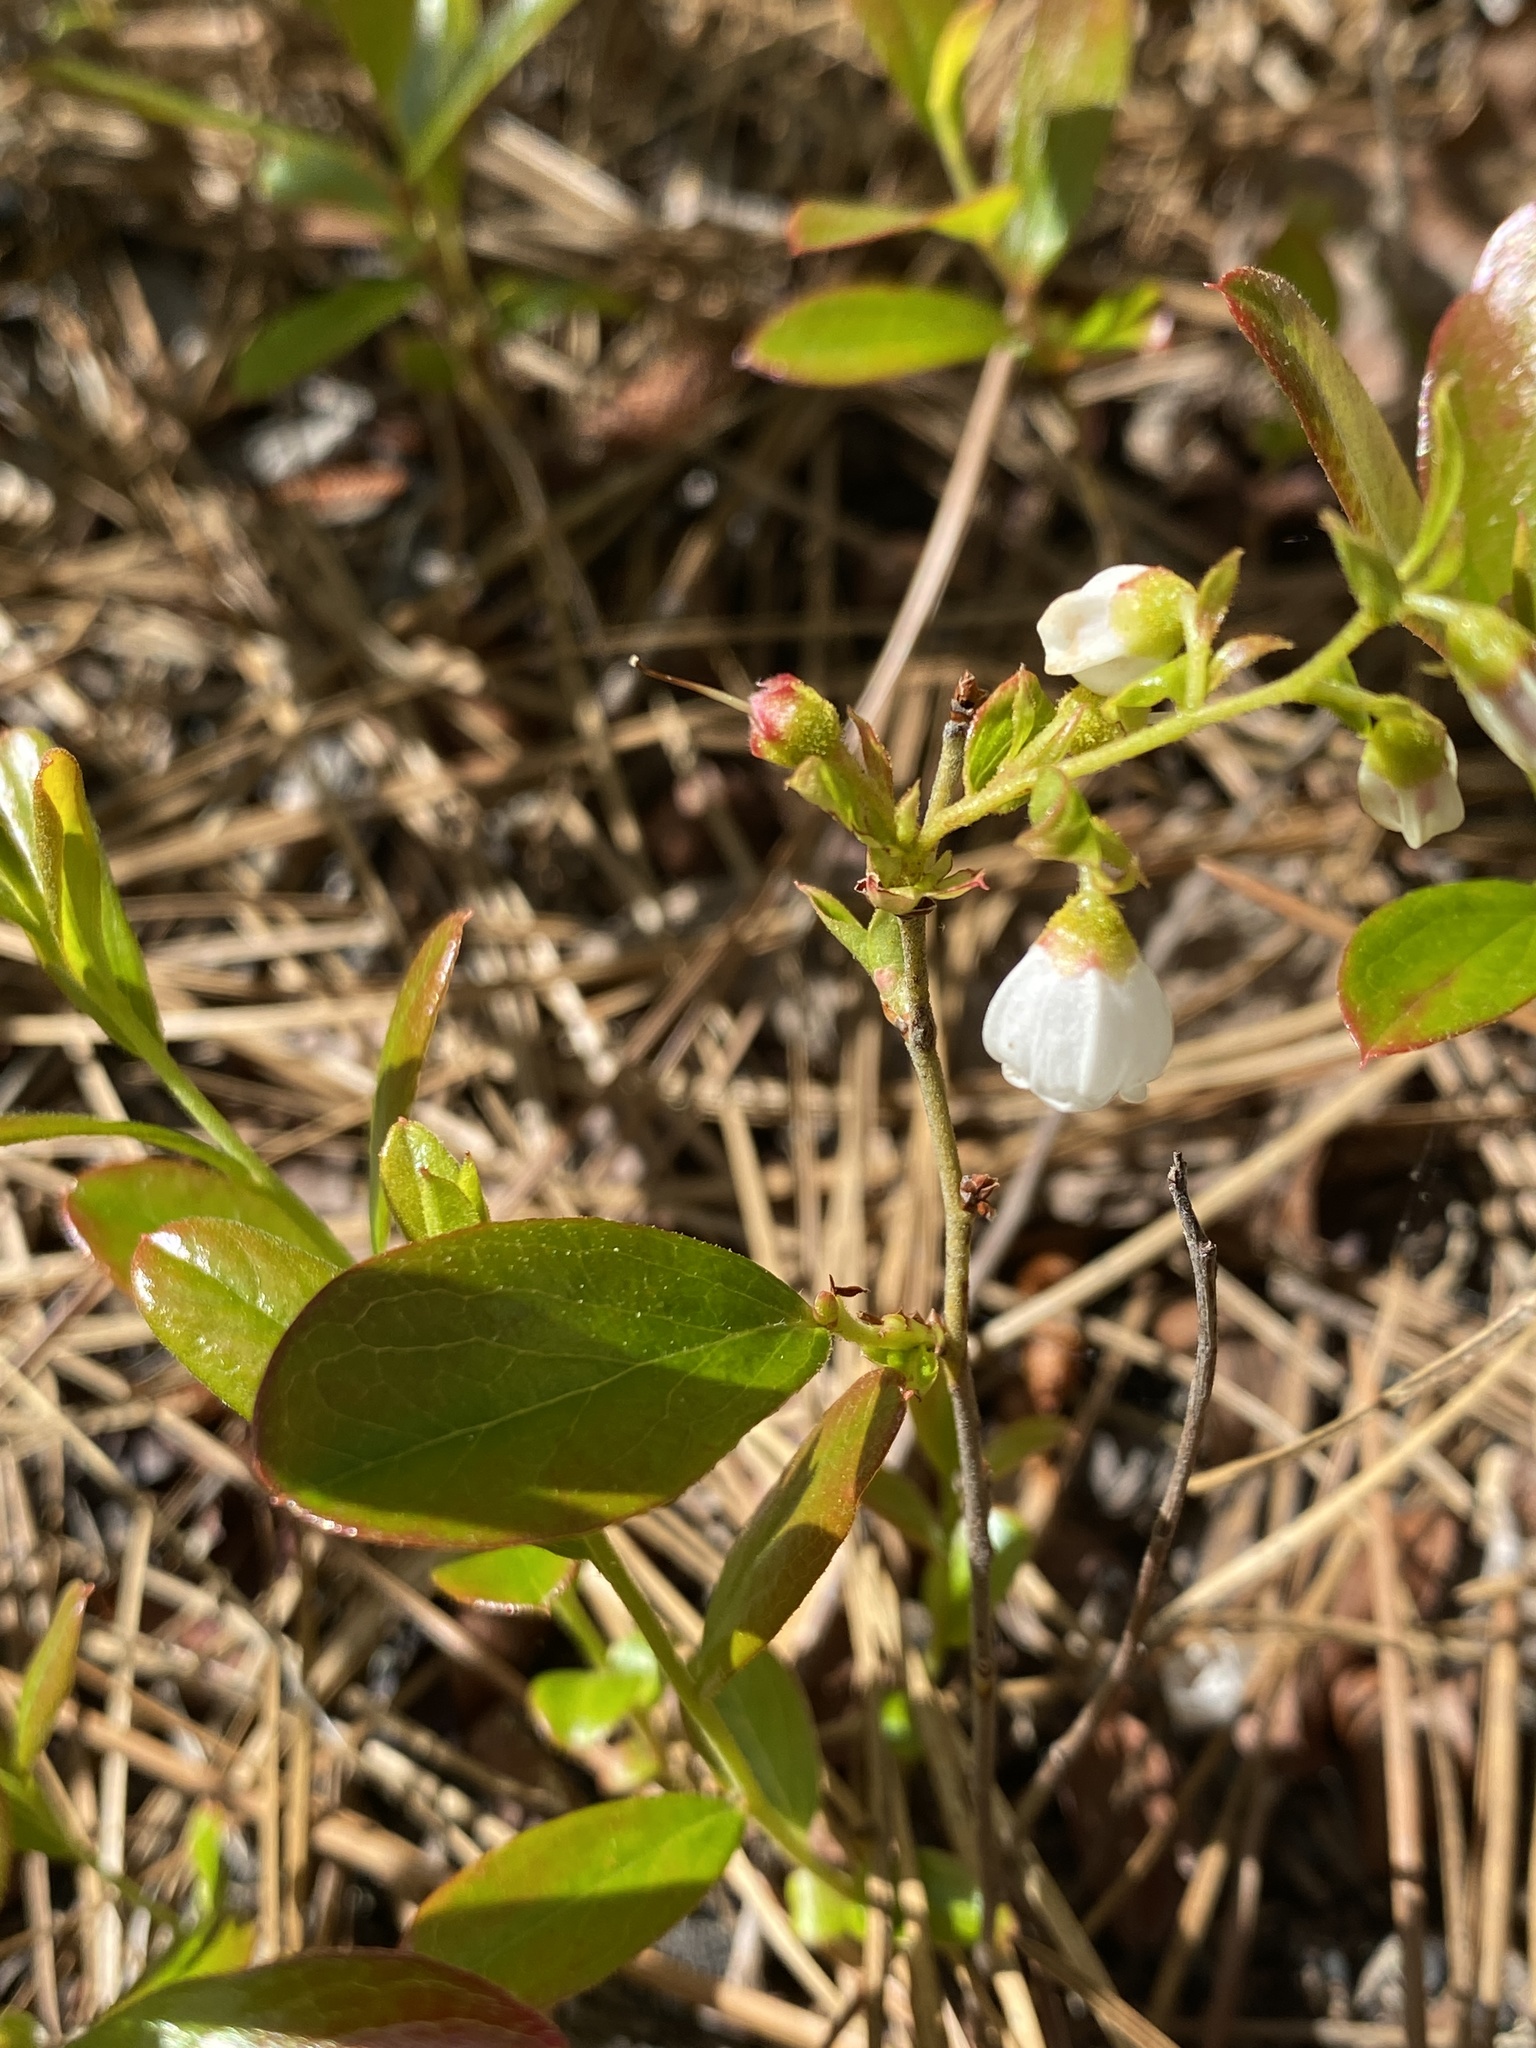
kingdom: Plantae
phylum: Tracheophyta
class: Magnoliopsida
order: Ericales
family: Ericaceae
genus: Gaylussacia
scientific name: Gaylussacia dumosa
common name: Dwarf huckleberry
